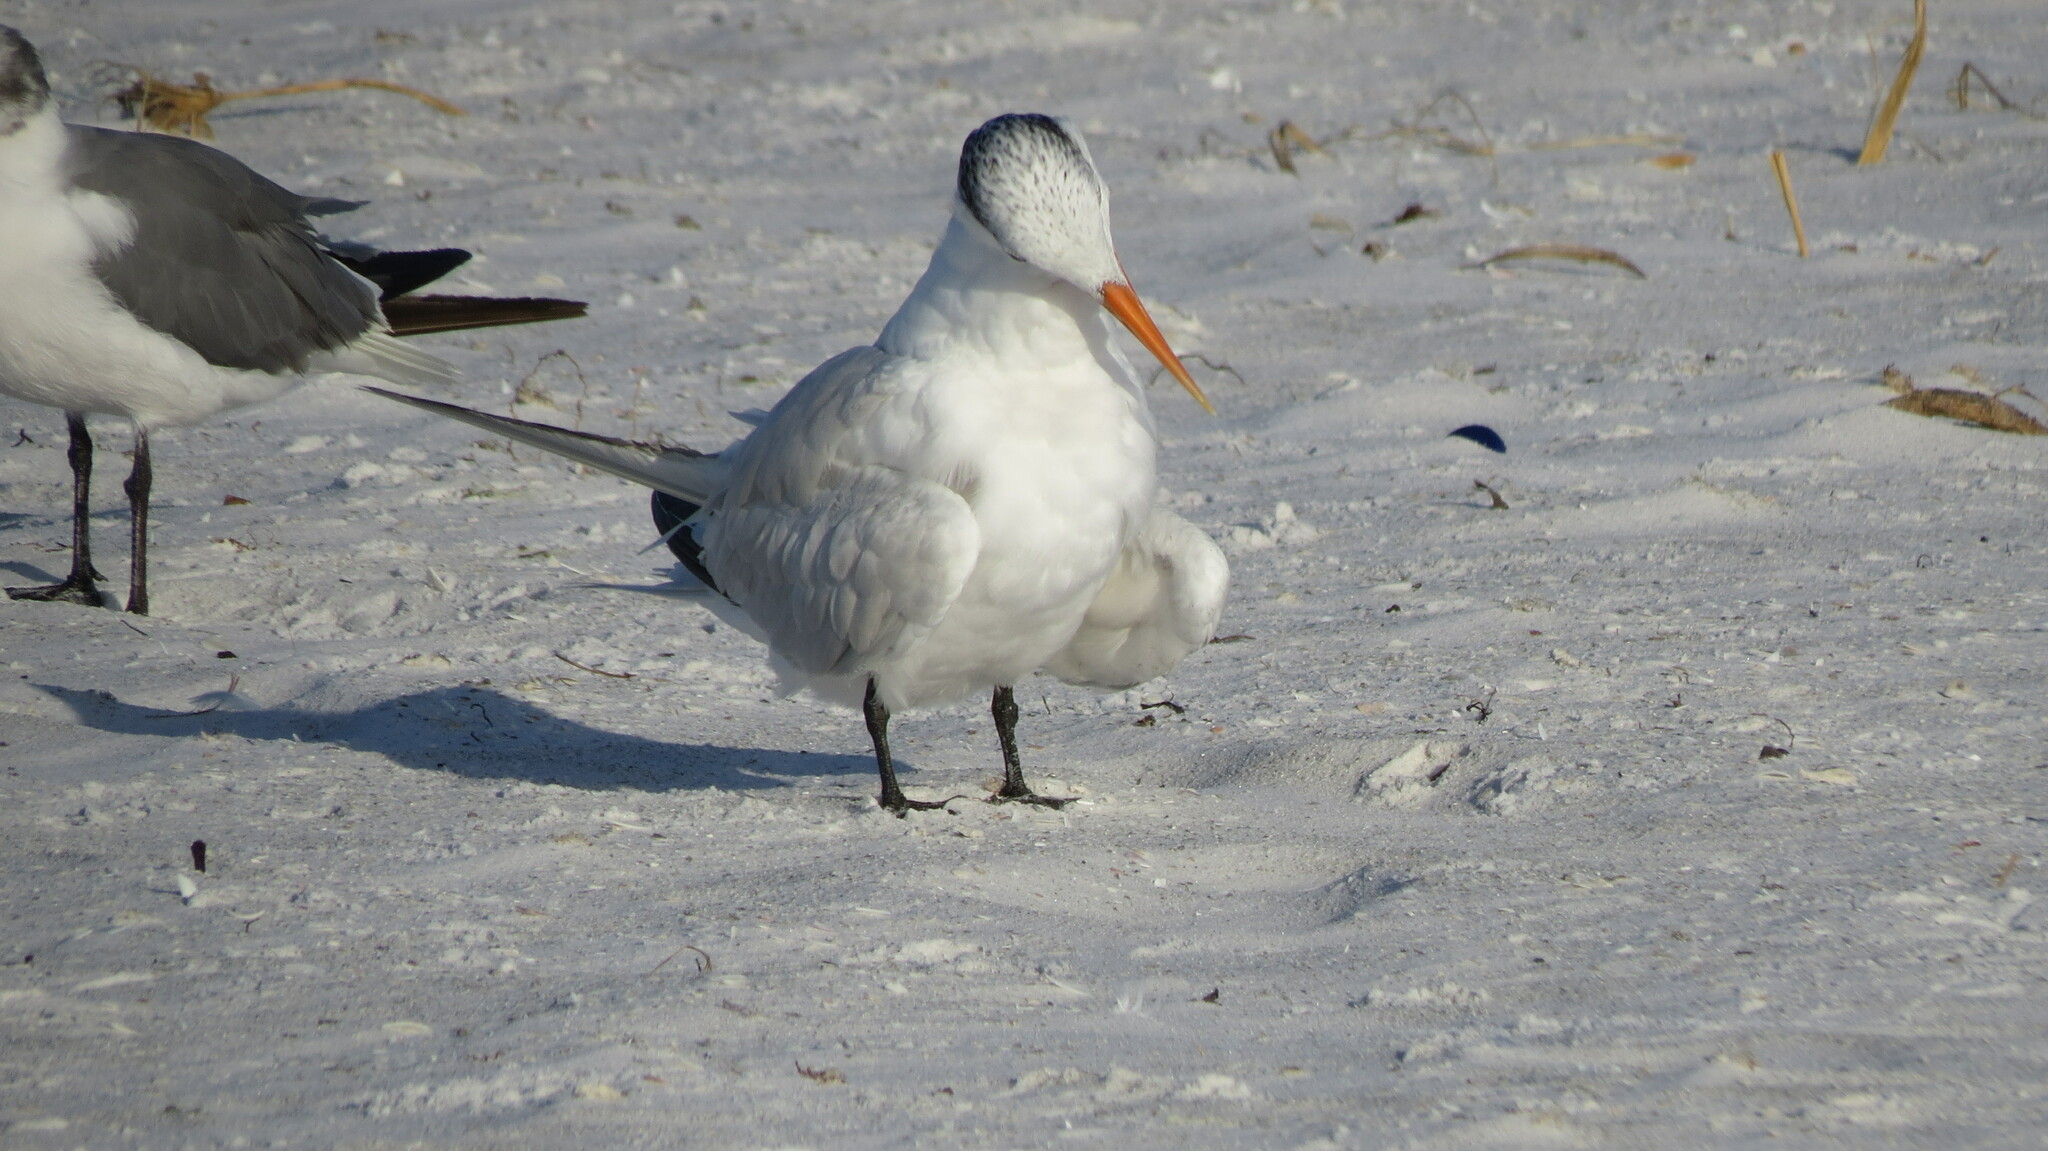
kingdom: Animalia
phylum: Chordata
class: Aves
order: Charadriiformes
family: Laridae
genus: Thalasseus
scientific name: Thalasseus maximus
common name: Royal tern
